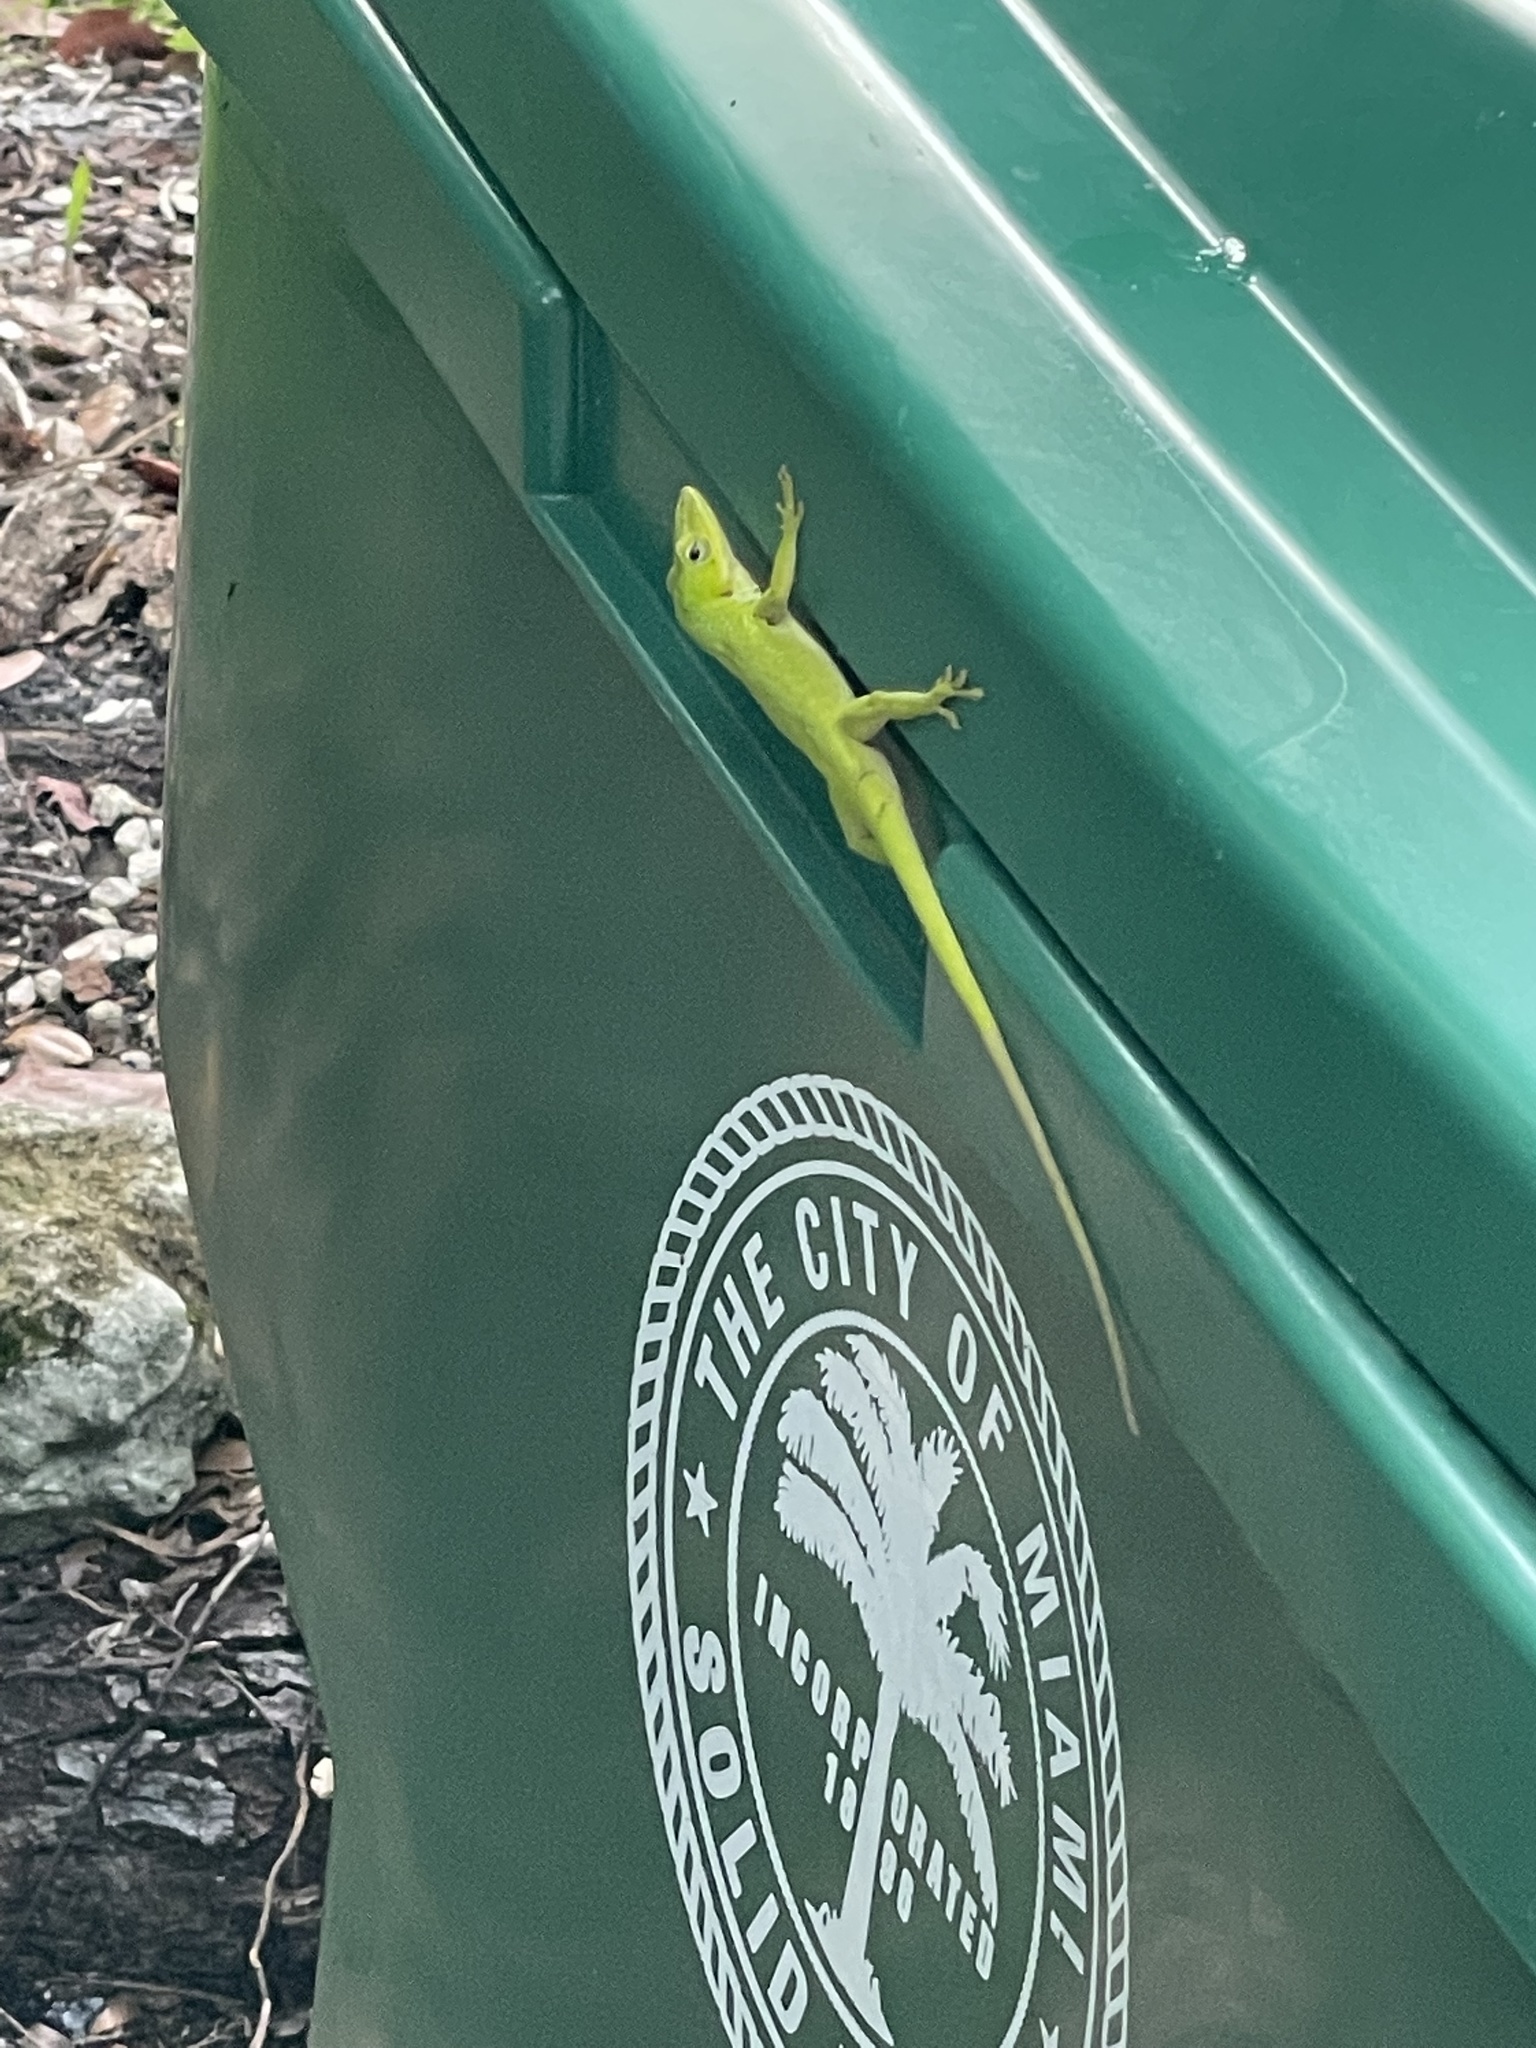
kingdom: Animalia
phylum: Chordata
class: Squamata
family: Dactyloidae
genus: Anolis
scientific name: Anolis carolinensis
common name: Green anole
